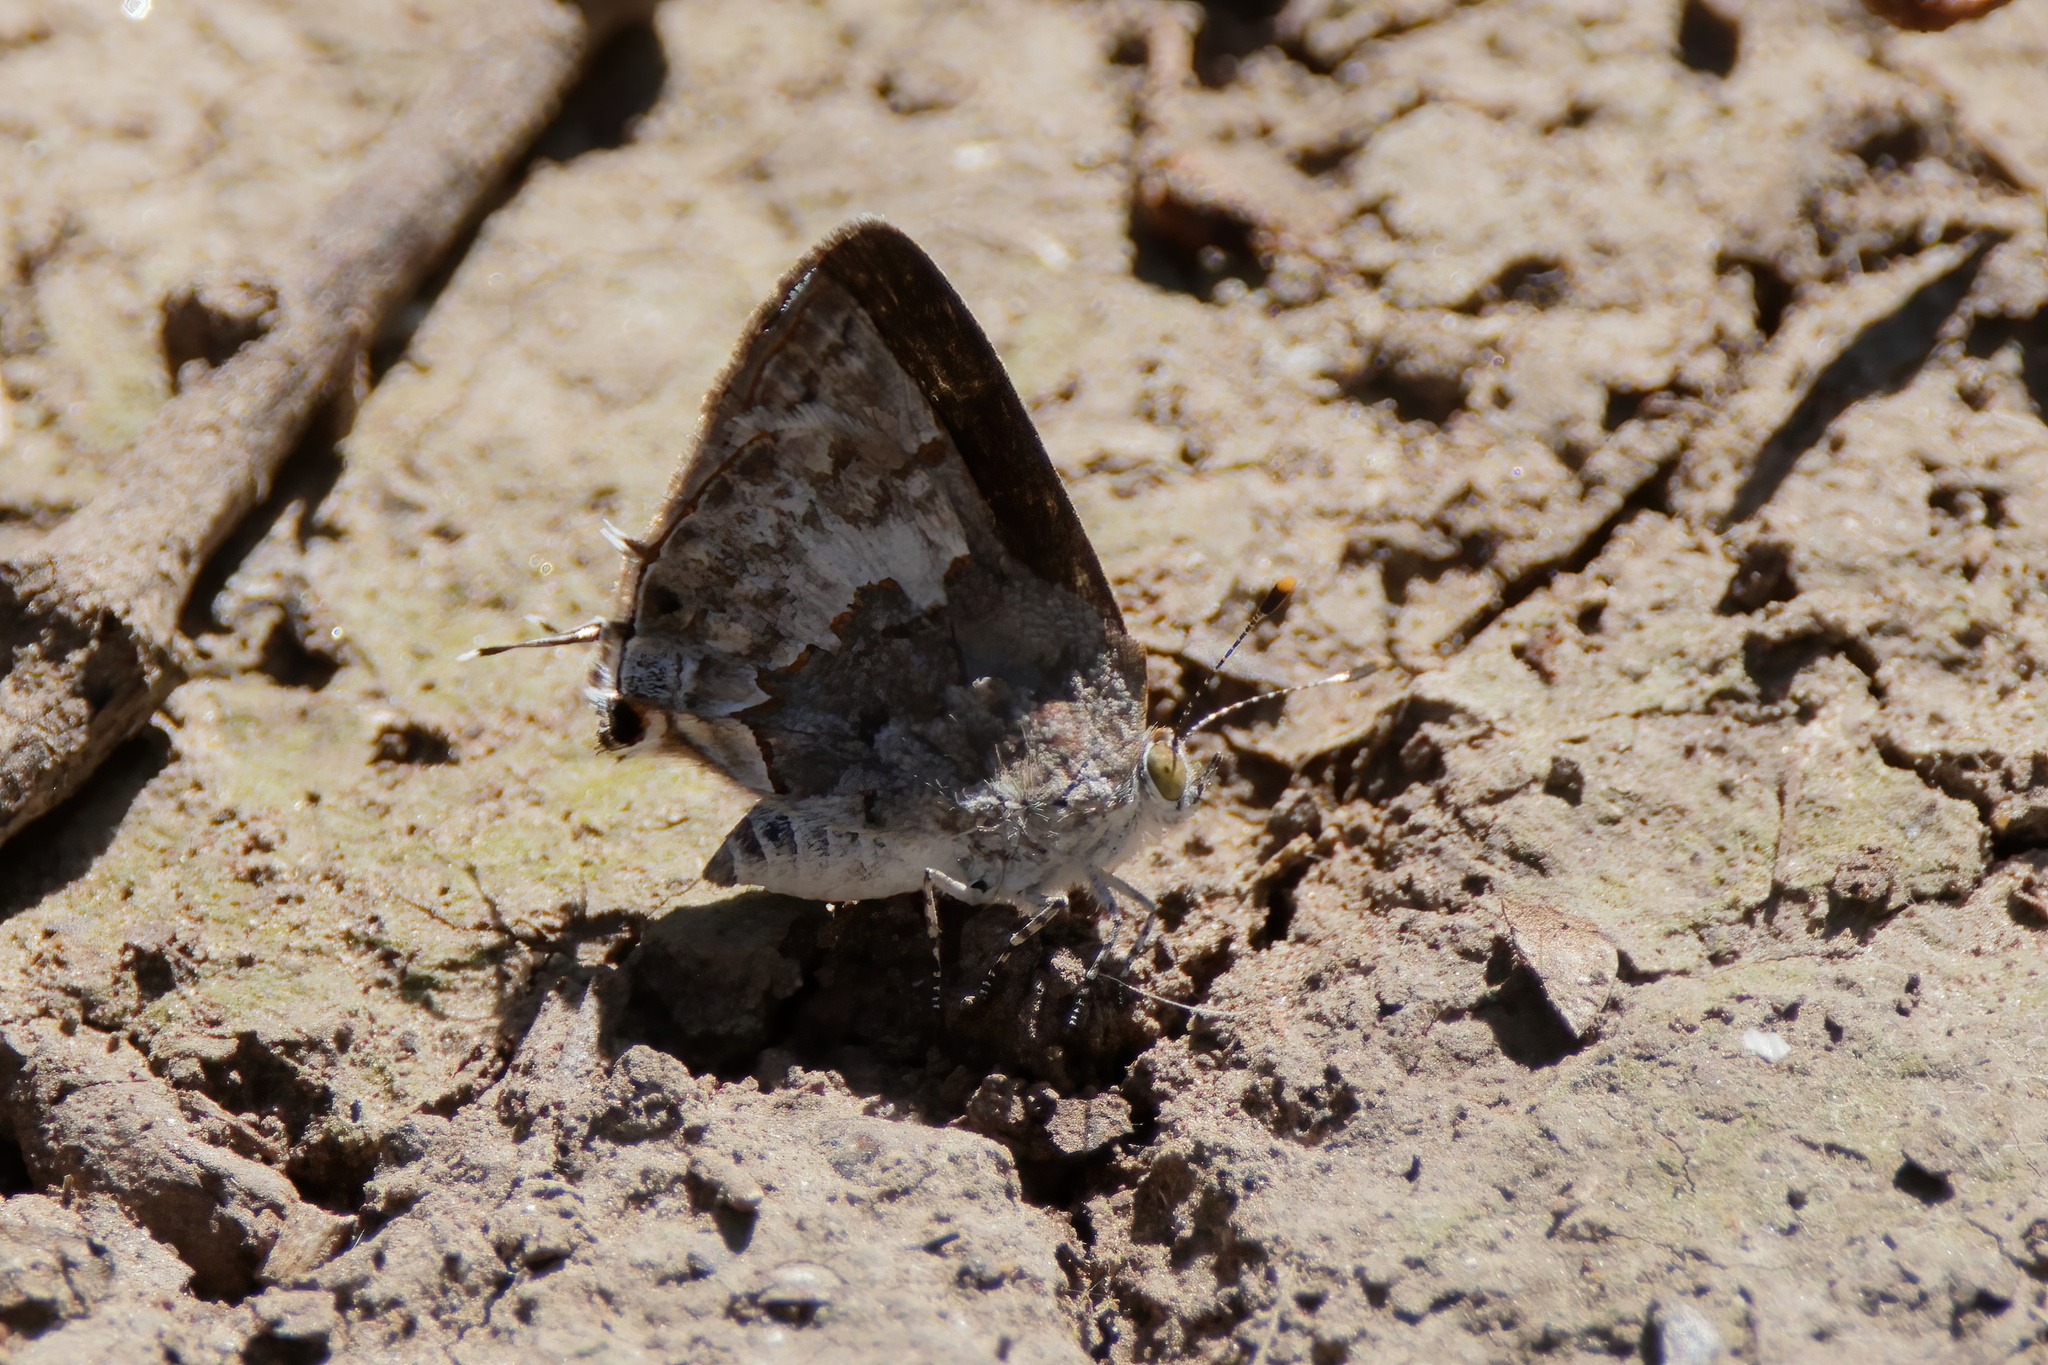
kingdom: Animalia
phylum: Arthropoda
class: Insecta
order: Lepidoptera
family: Lycaenidae
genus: Ministrymon
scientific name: Ministrymon clytie
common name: Clytie ministreak
